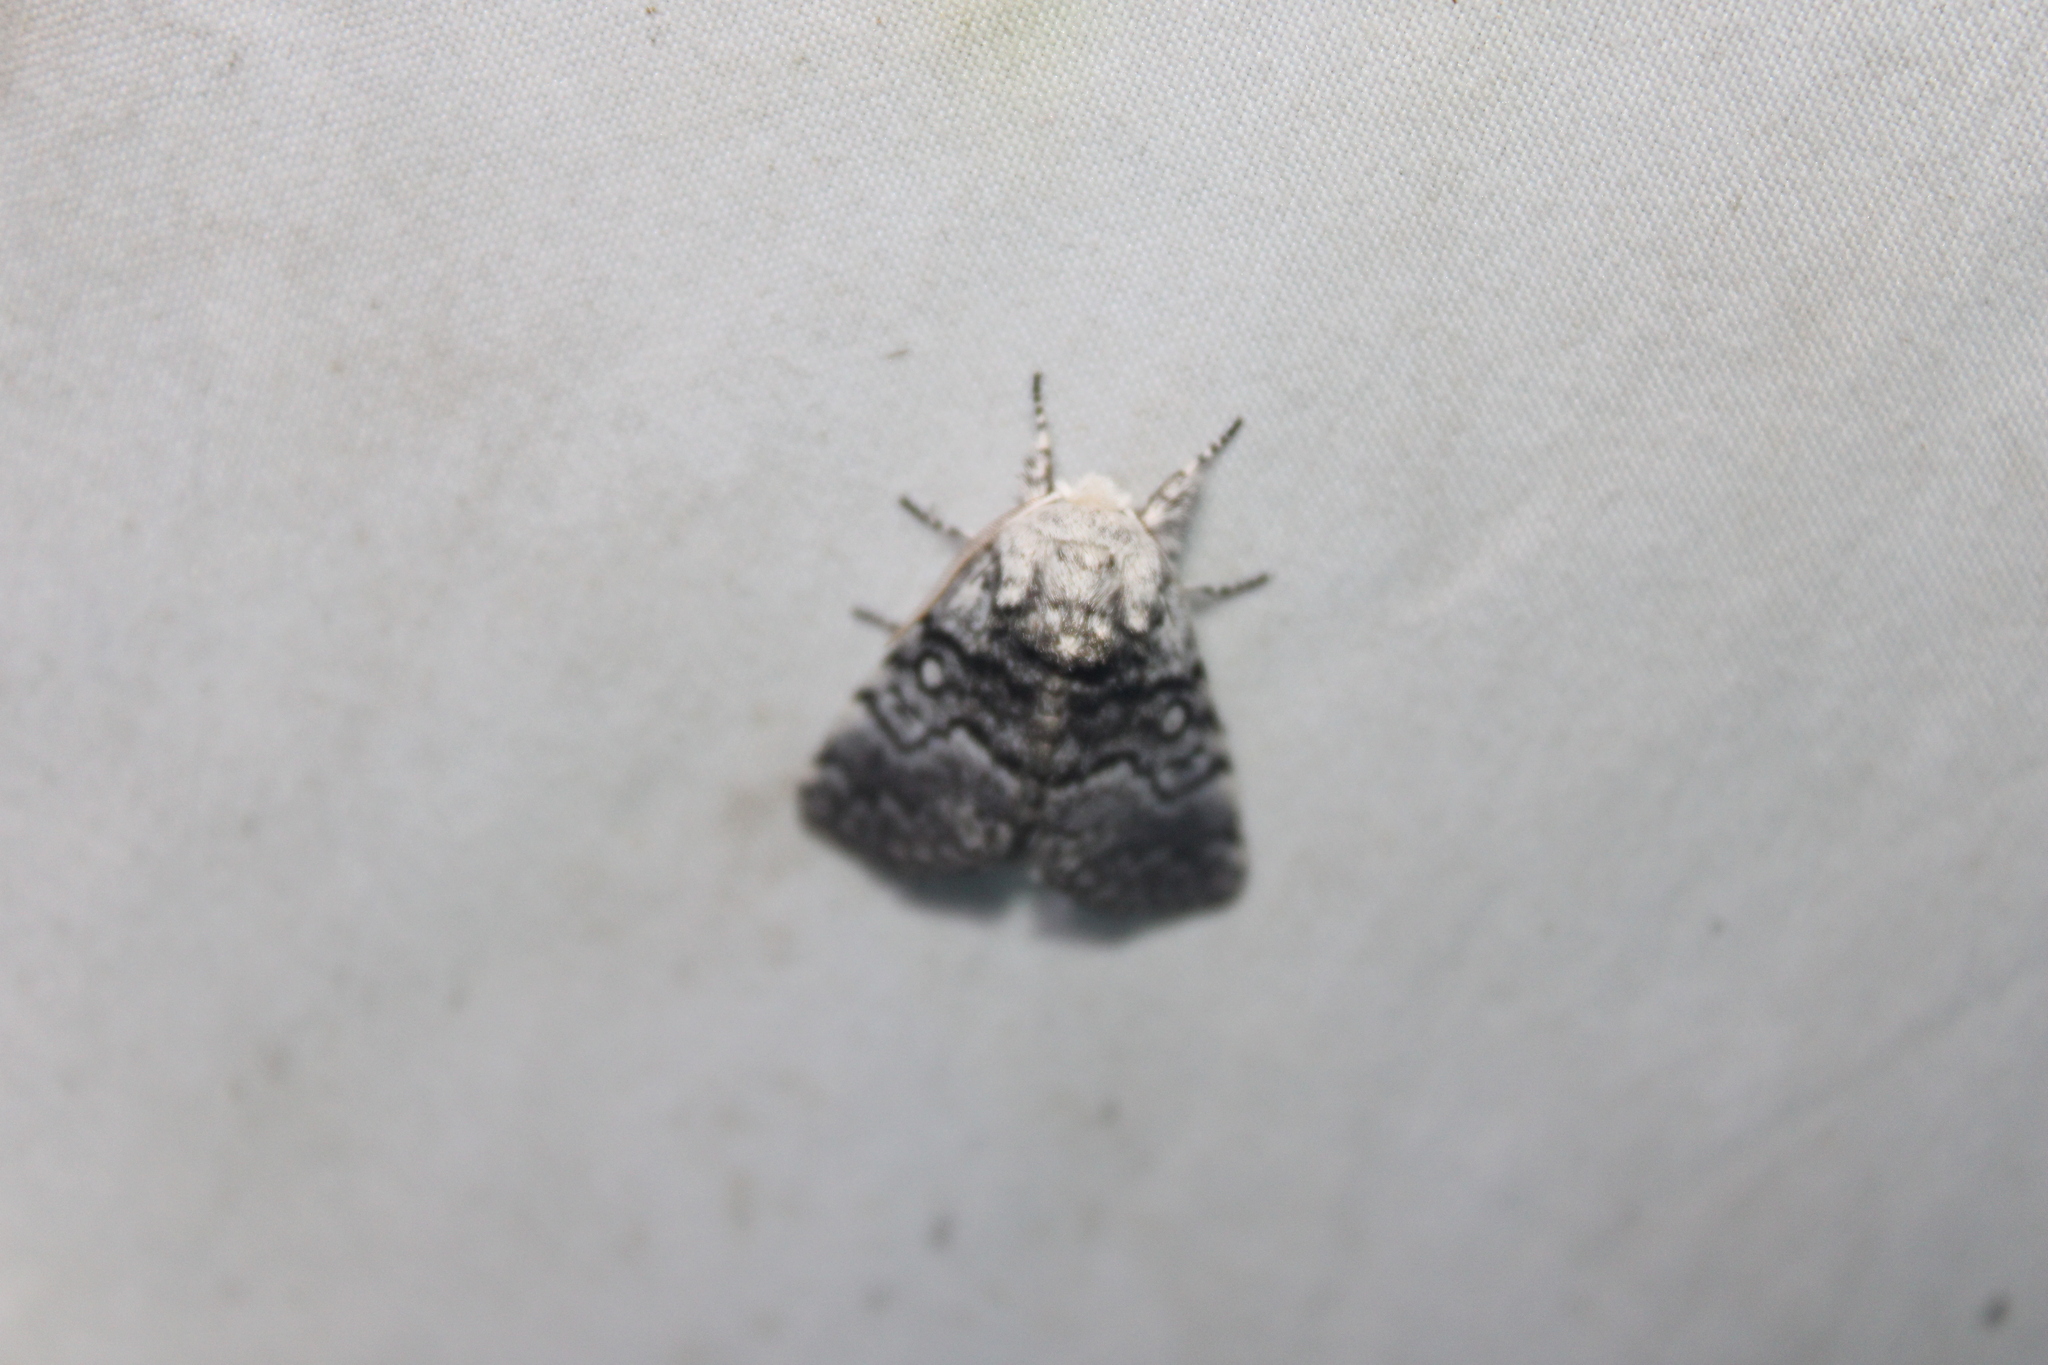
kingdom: Animalia
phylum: Arthropoda
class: Insecta
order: Lepidoptera
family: Noctuidae
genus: Colocasia
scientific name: Colocasia propinquilinea
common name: Close-banded demas
